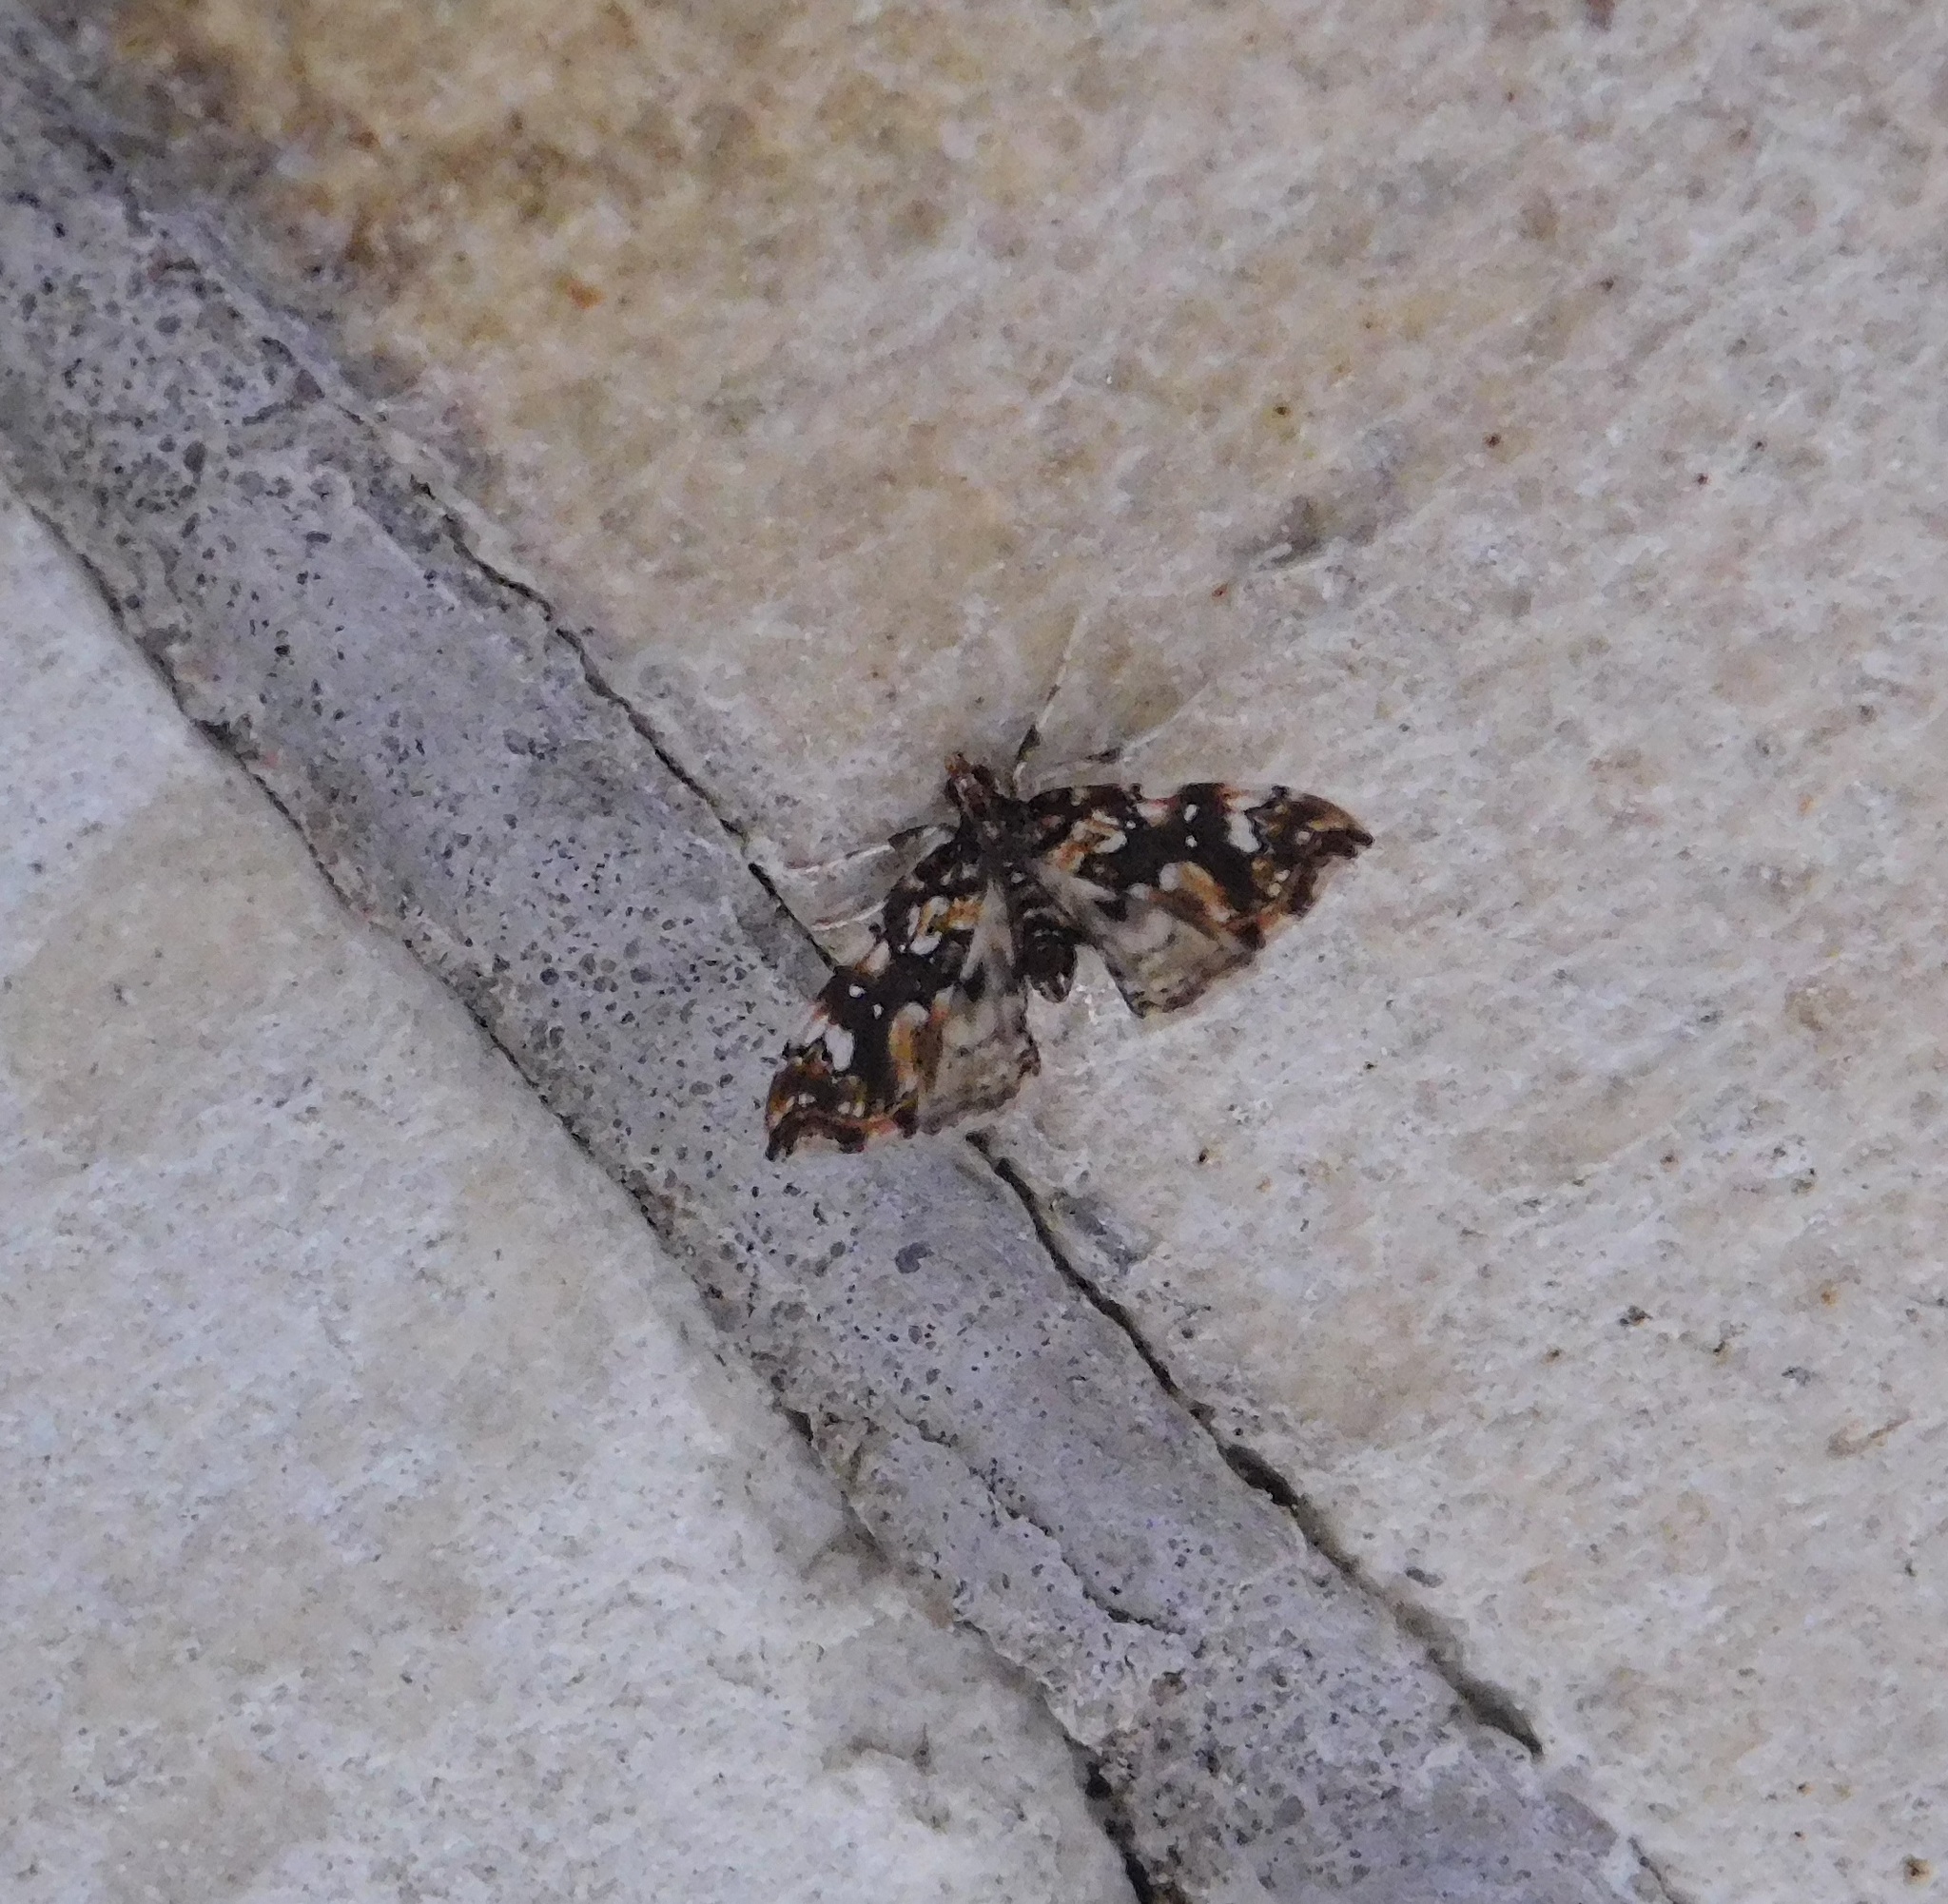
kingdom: Animalia
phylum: Arthropoda
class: Insecta
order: Lepidoptera
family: Pyralidae
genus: Musotima
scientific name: Musotima nitidalis
